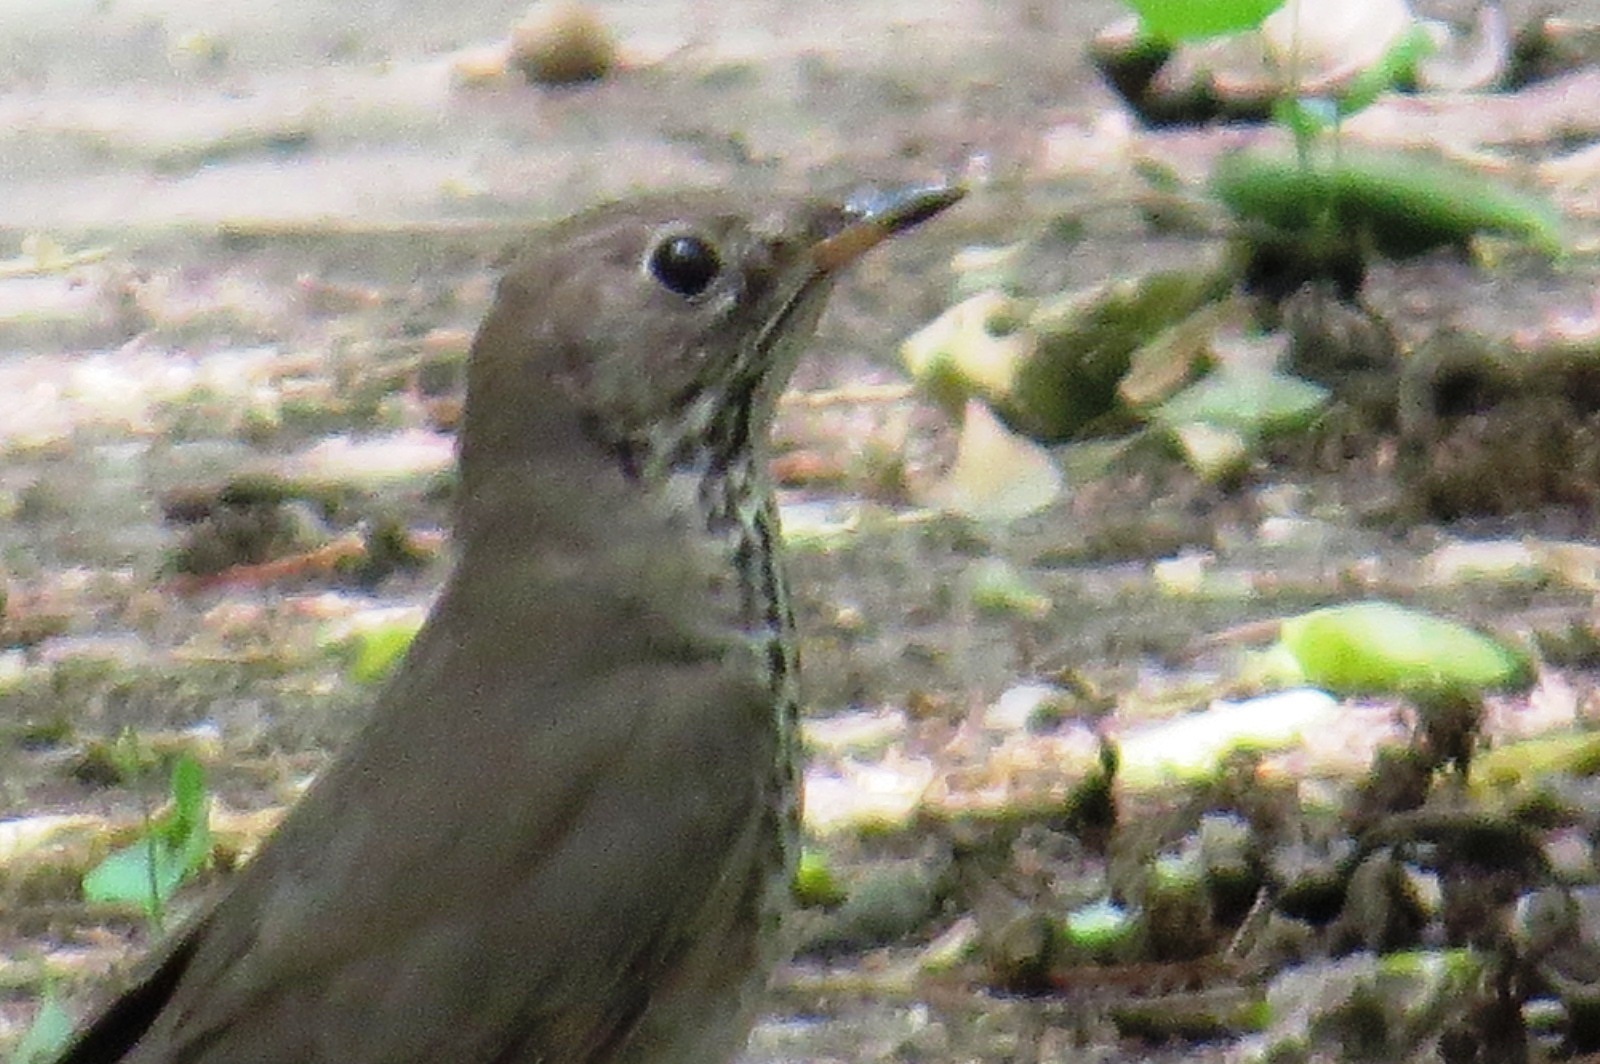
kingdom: Animalia
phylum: Chordata
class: Aves
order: Passeriformes
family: Turdidae
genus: Catharus
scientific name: Catharus minimus
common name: Grey-cheeked thrush
